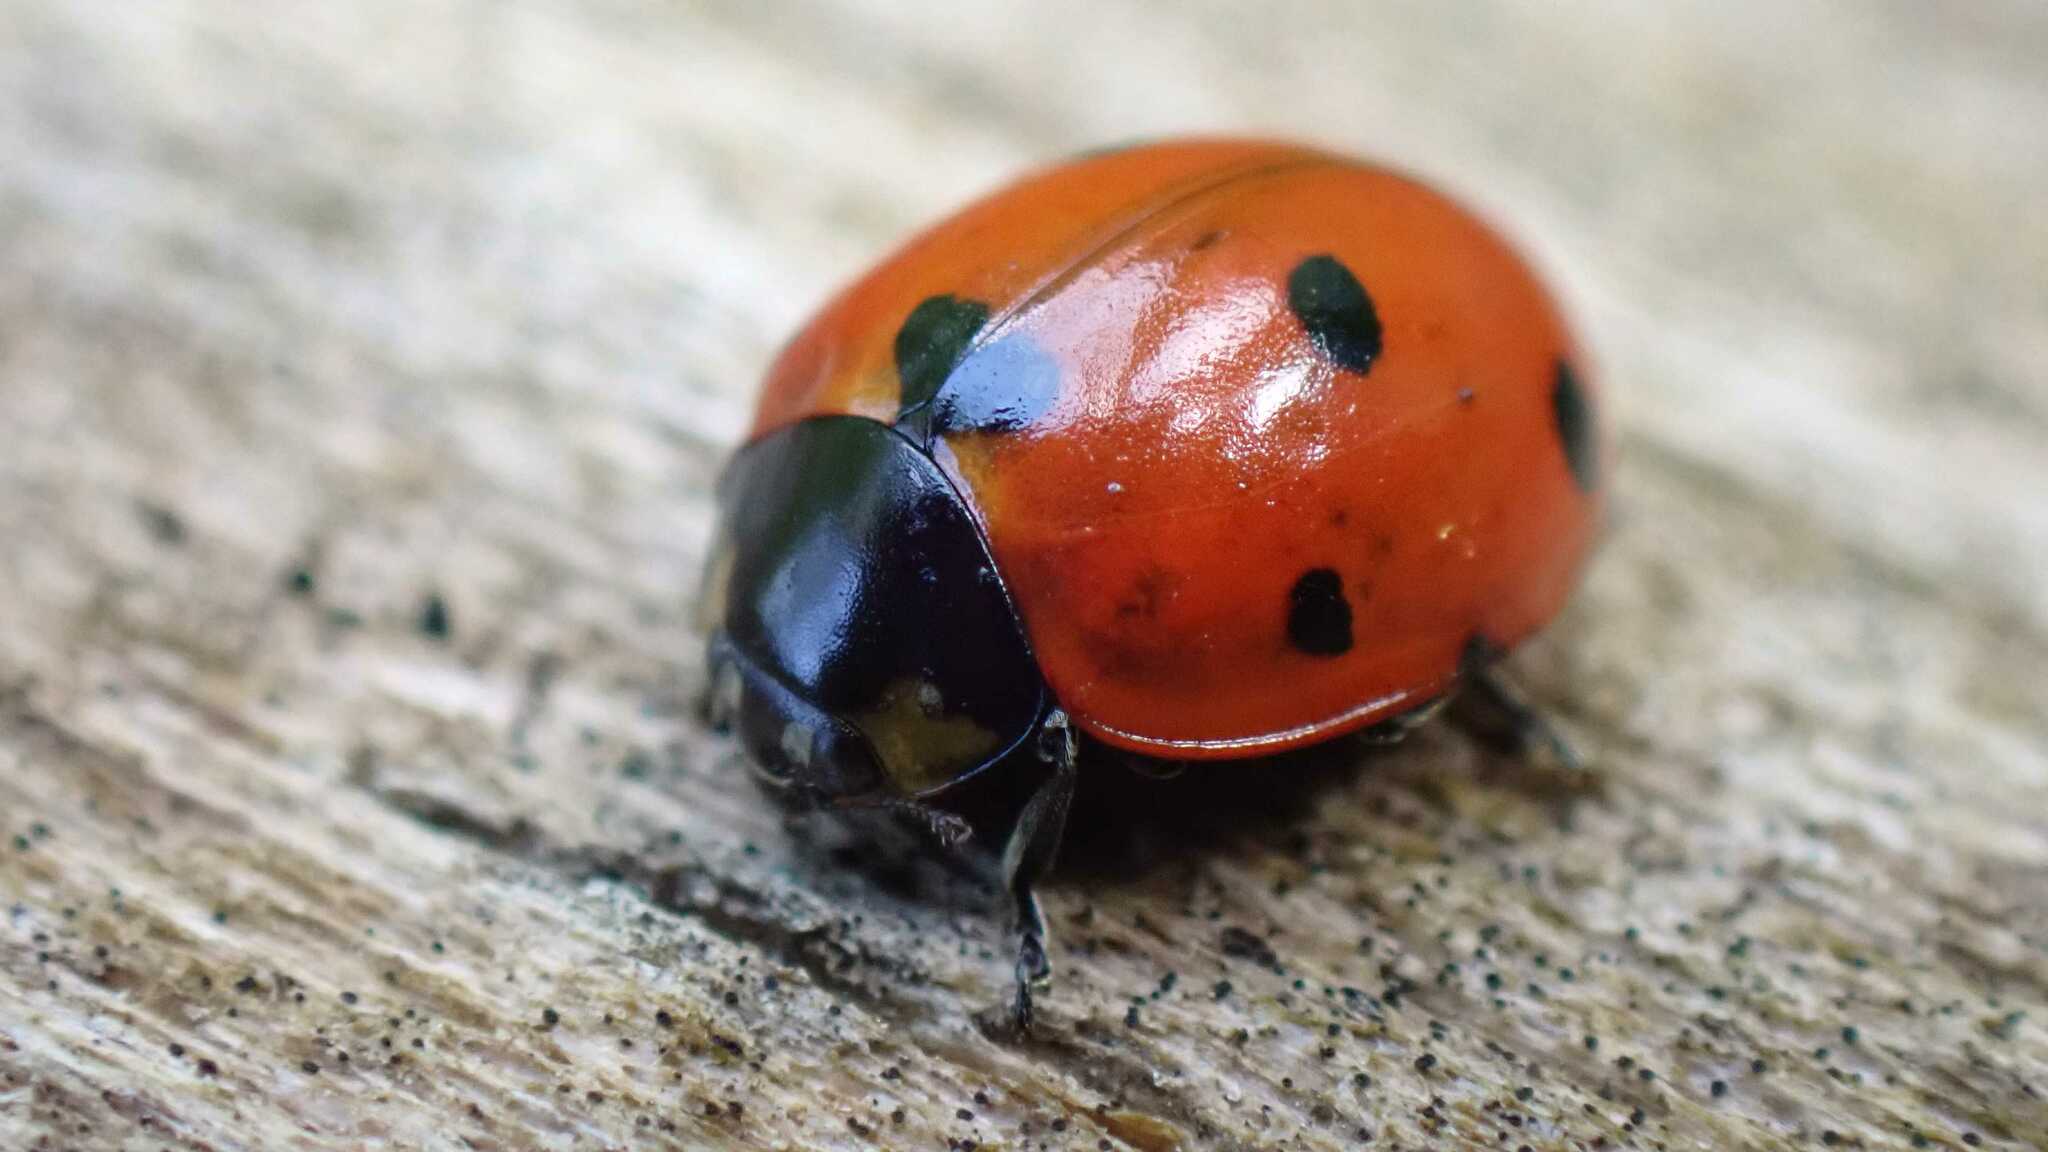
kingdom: Animalia
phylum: Arthropoda
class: Insecta
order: Coleoptera
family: Coccinellidae
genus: Coccinella
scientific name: Coccinella septempunctata
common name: Sevenspotted lady beetle
